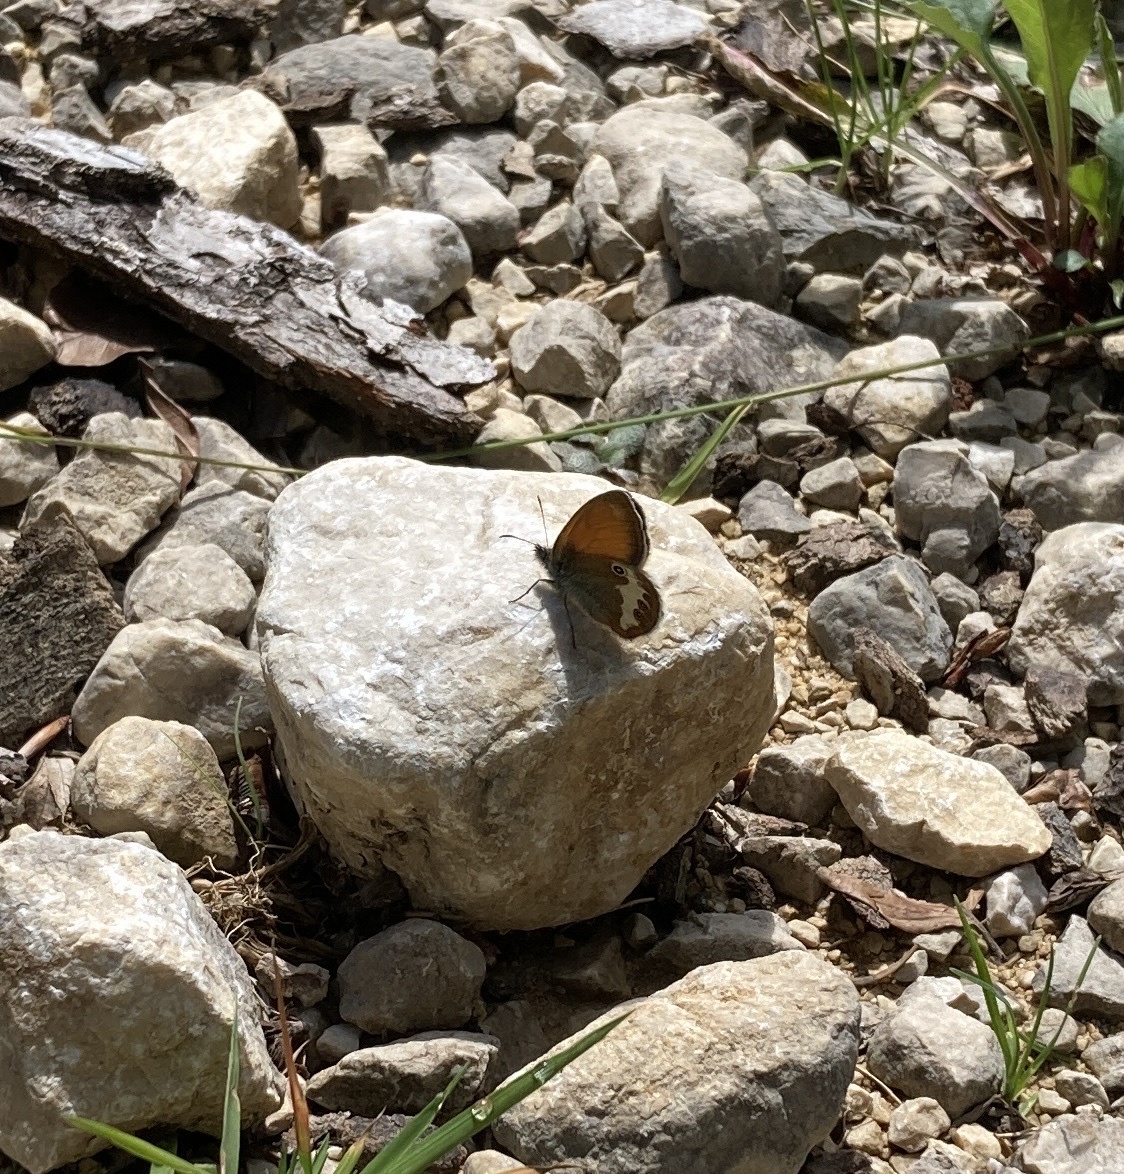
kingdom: Animalia
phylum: Arthropoda
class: Insecta
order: Lepidoptera
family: Nymphalidae
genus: Coenonympha
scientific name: Coenonympha arcania
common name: Pearly heath
